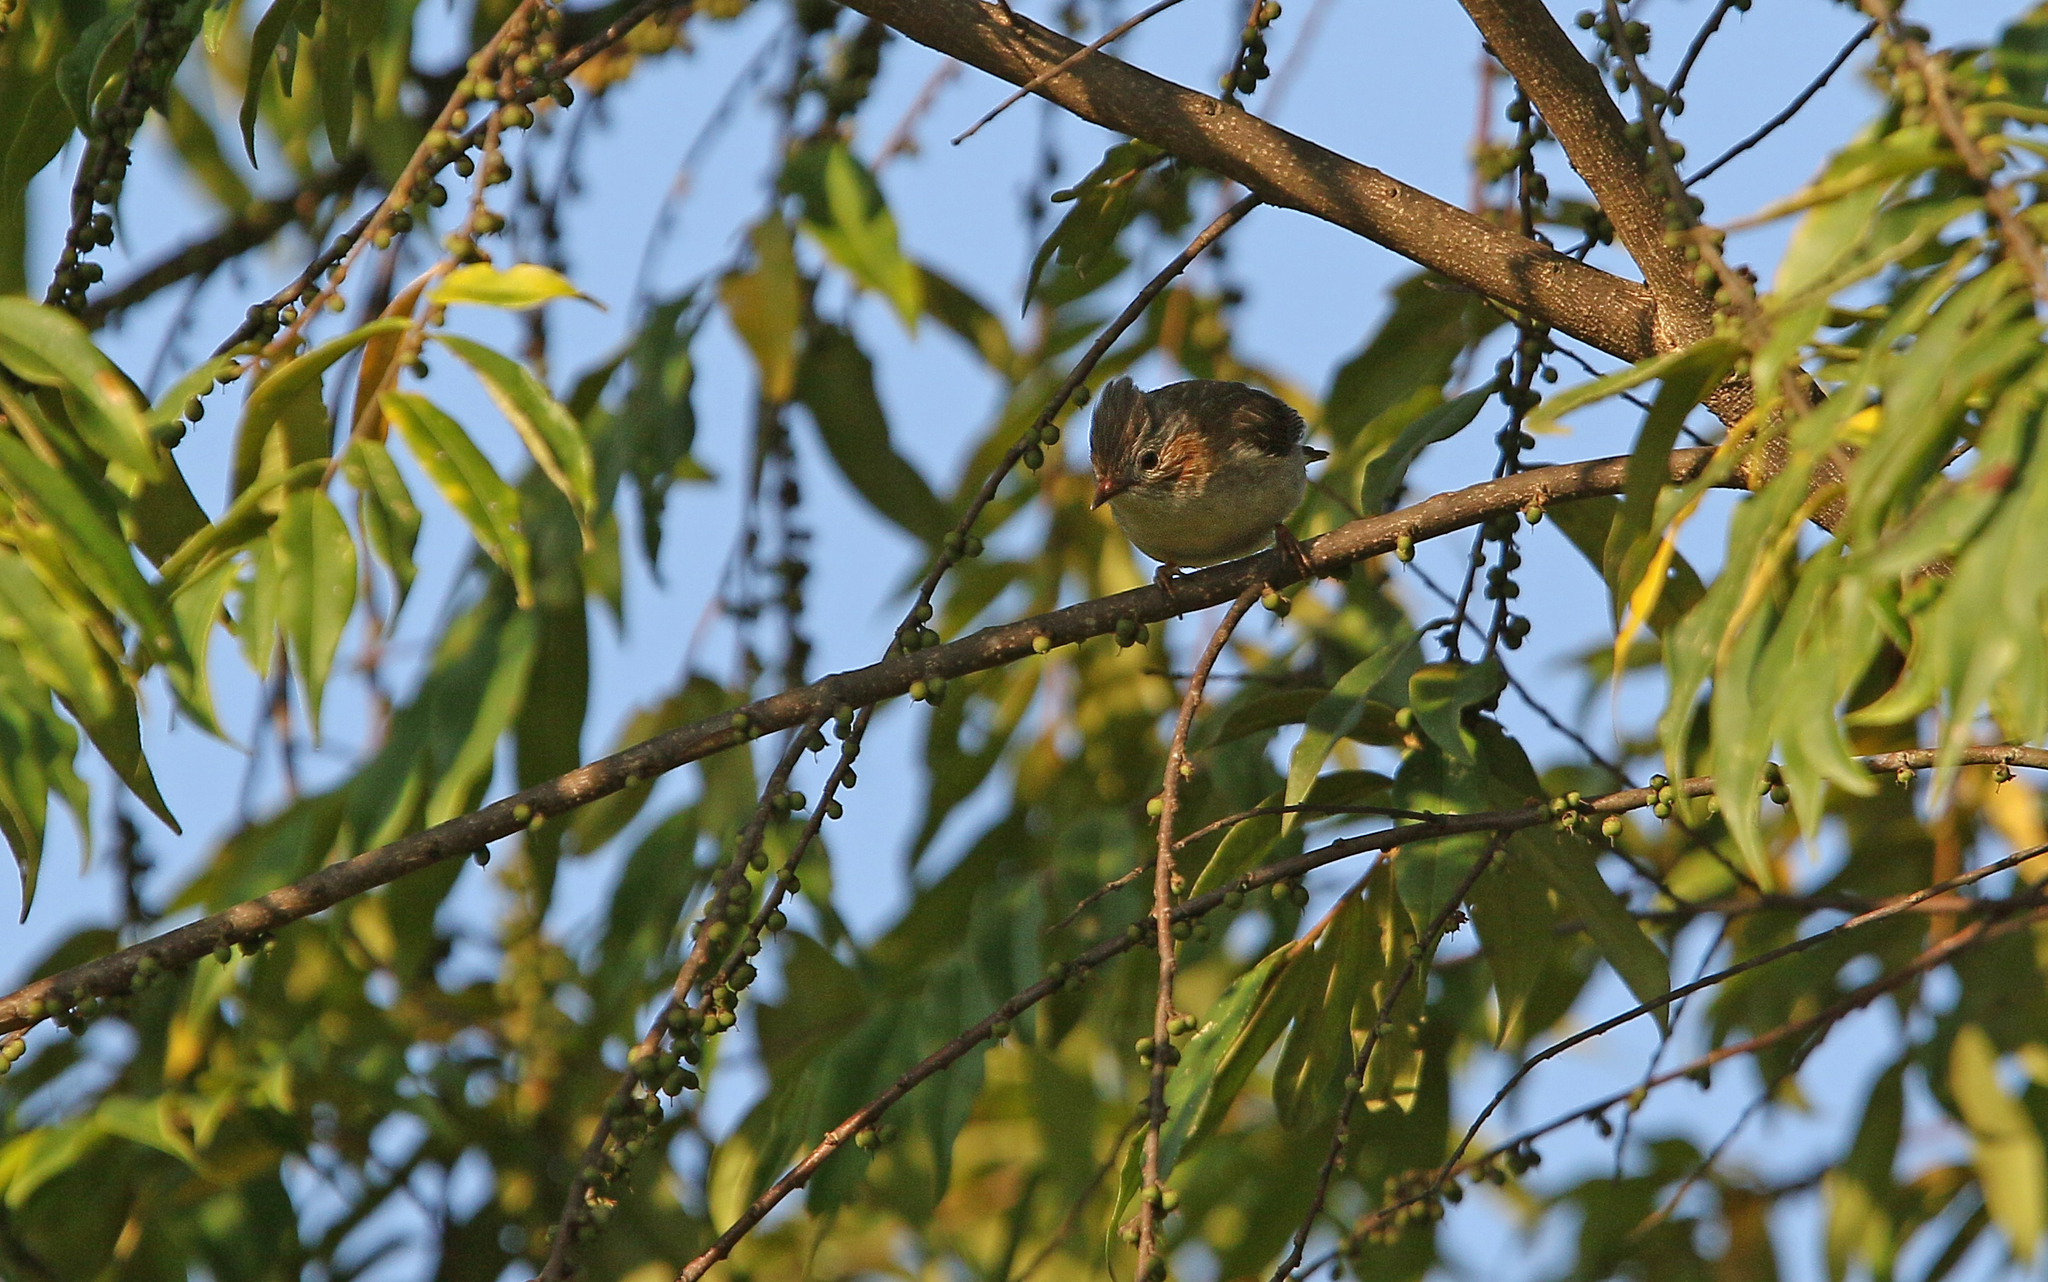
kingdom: Animalia
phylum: Chordata
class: Aves
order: Passeriformes
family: Zosteropidae
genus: Staphida
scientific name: Staphida castaniceps
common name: Striated yuhina
